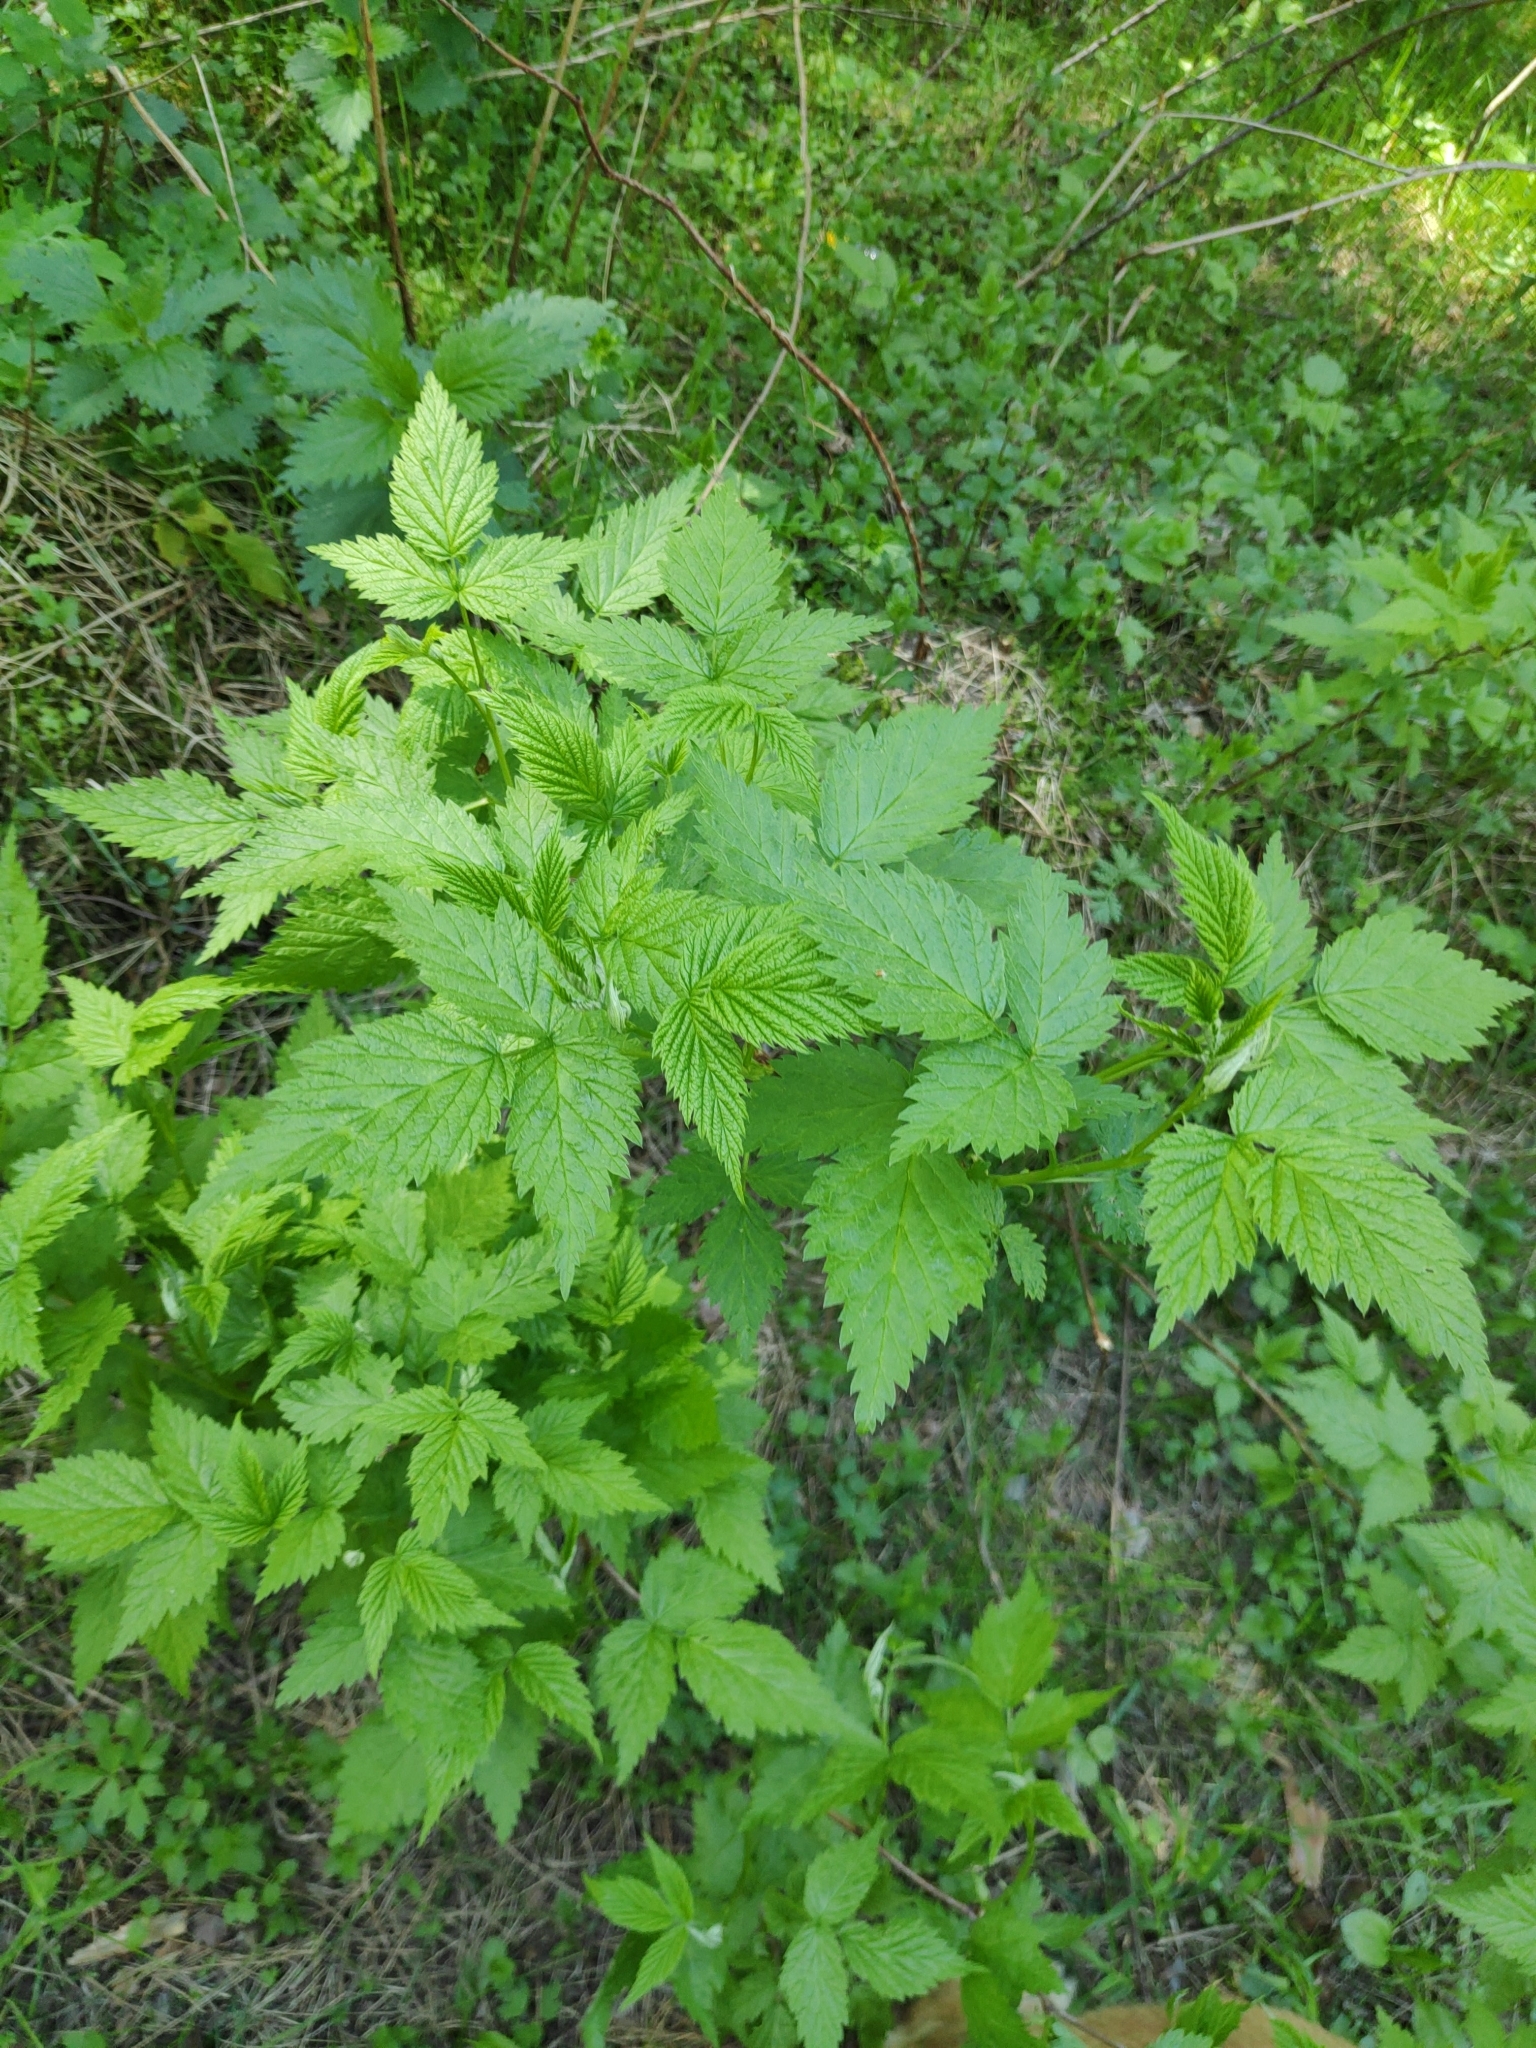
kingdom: Plantae
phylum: Tracheophyta
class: Magnoliopsida
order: Rosales
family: Rosaceae
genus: Rubus
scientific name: Rubus idaeus
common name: Raspberry
